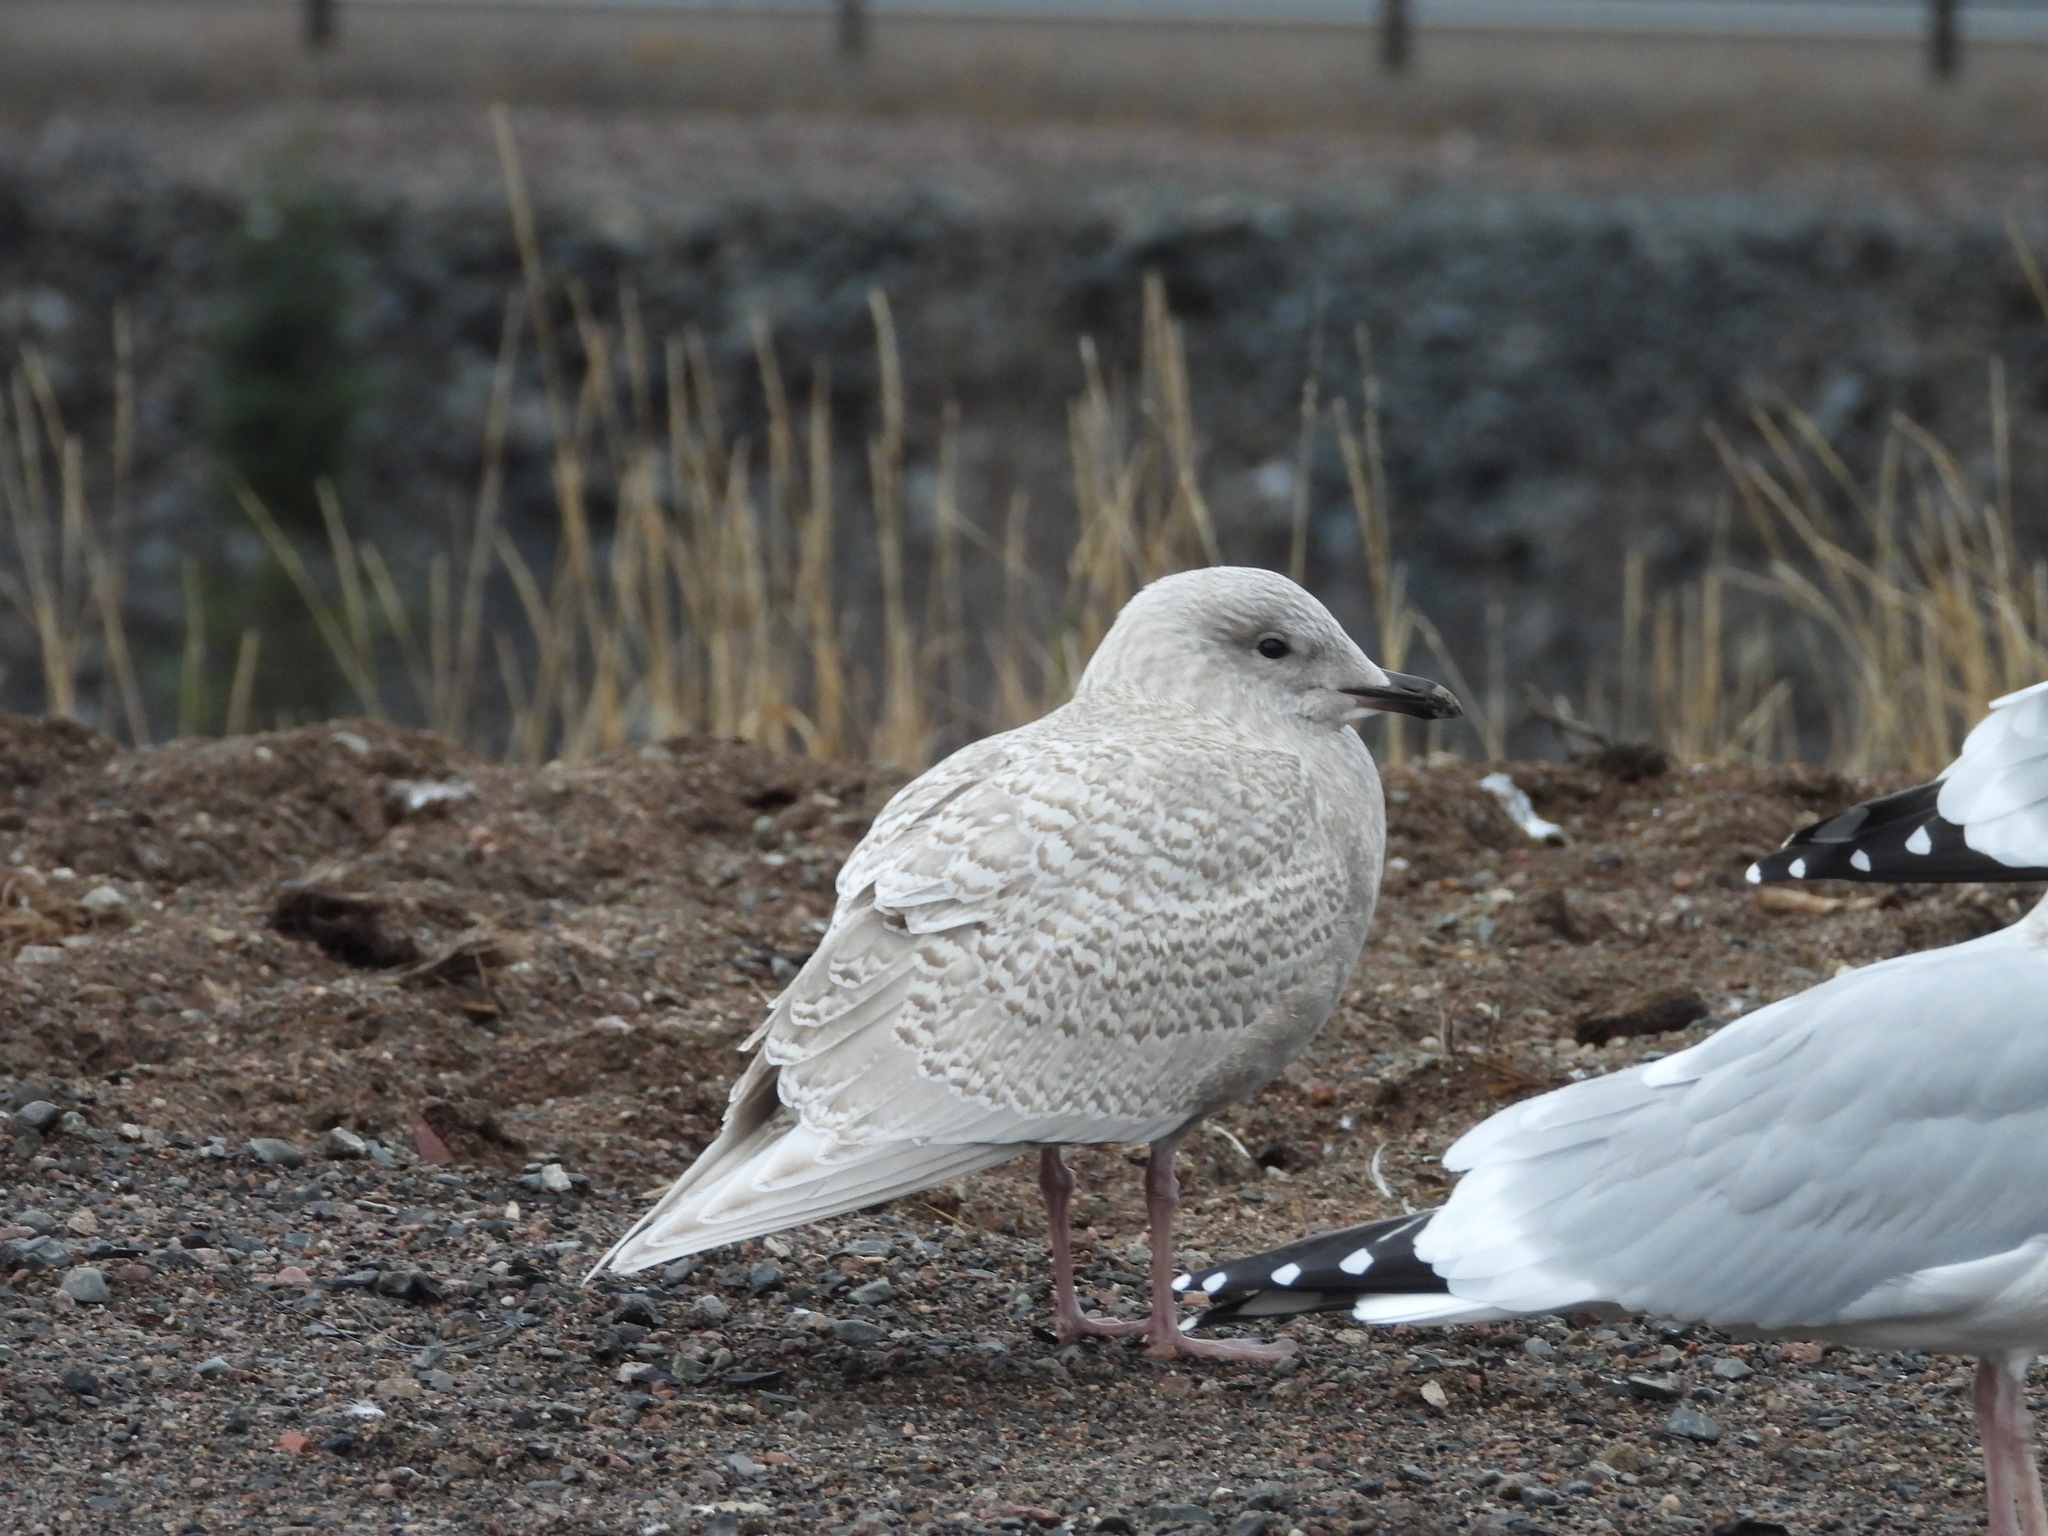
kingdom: Animalia
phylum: Chordata
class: Aves
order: Charadriiformes
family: Laridae
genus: Larus
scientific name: Larus glaucoides
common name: Iceland gull
